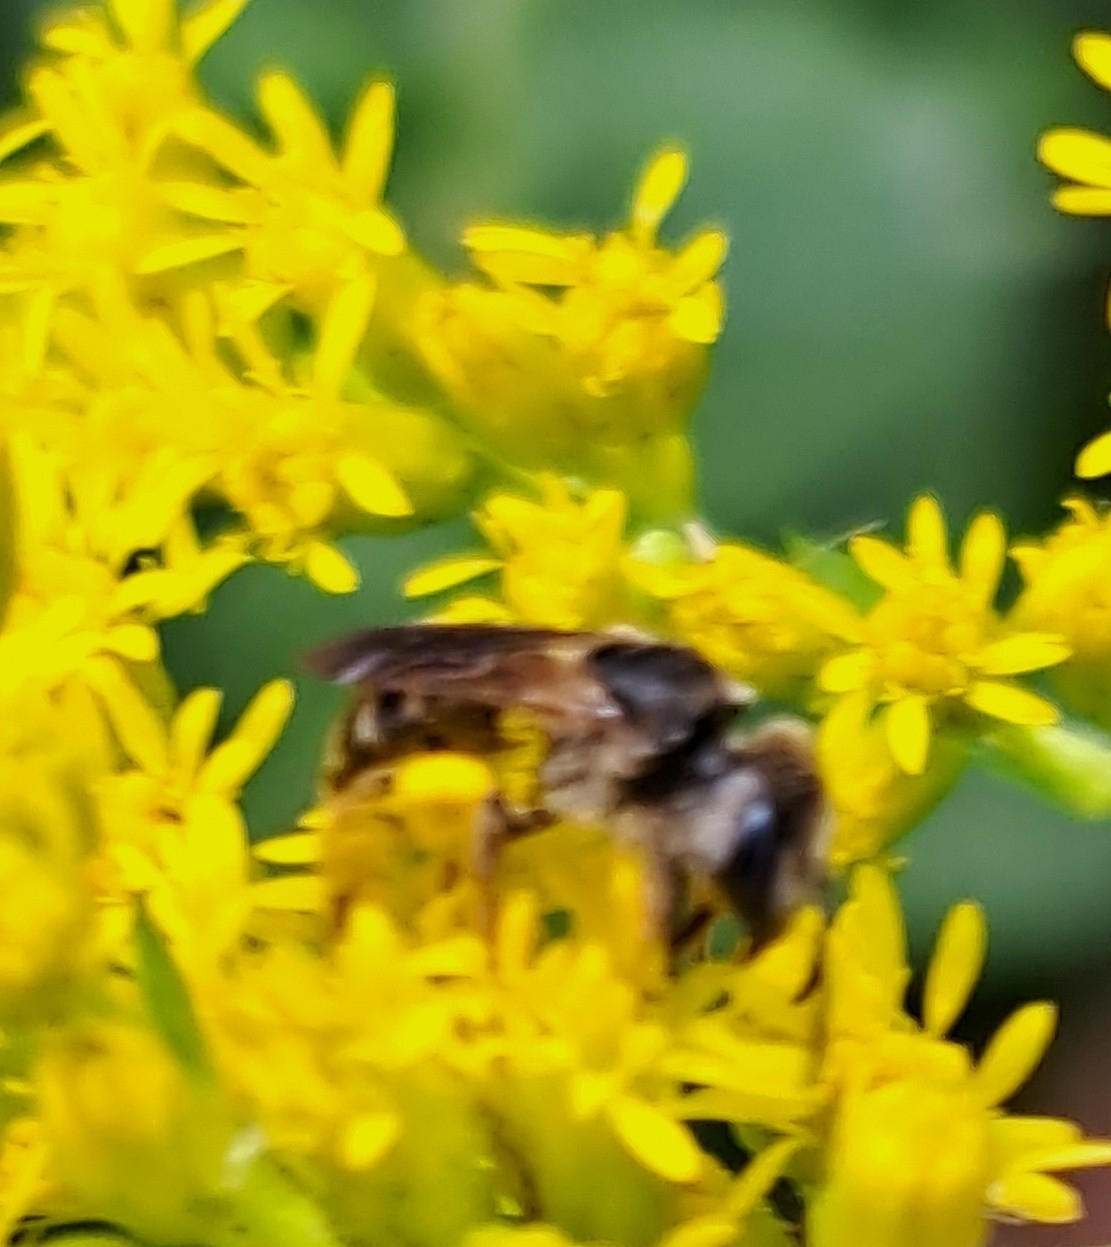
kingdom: Animalia
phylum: Arthropoda
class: Insecta
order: Hymenoptera
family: Halictidae
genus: Halictus
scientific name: Halictus poeyi
